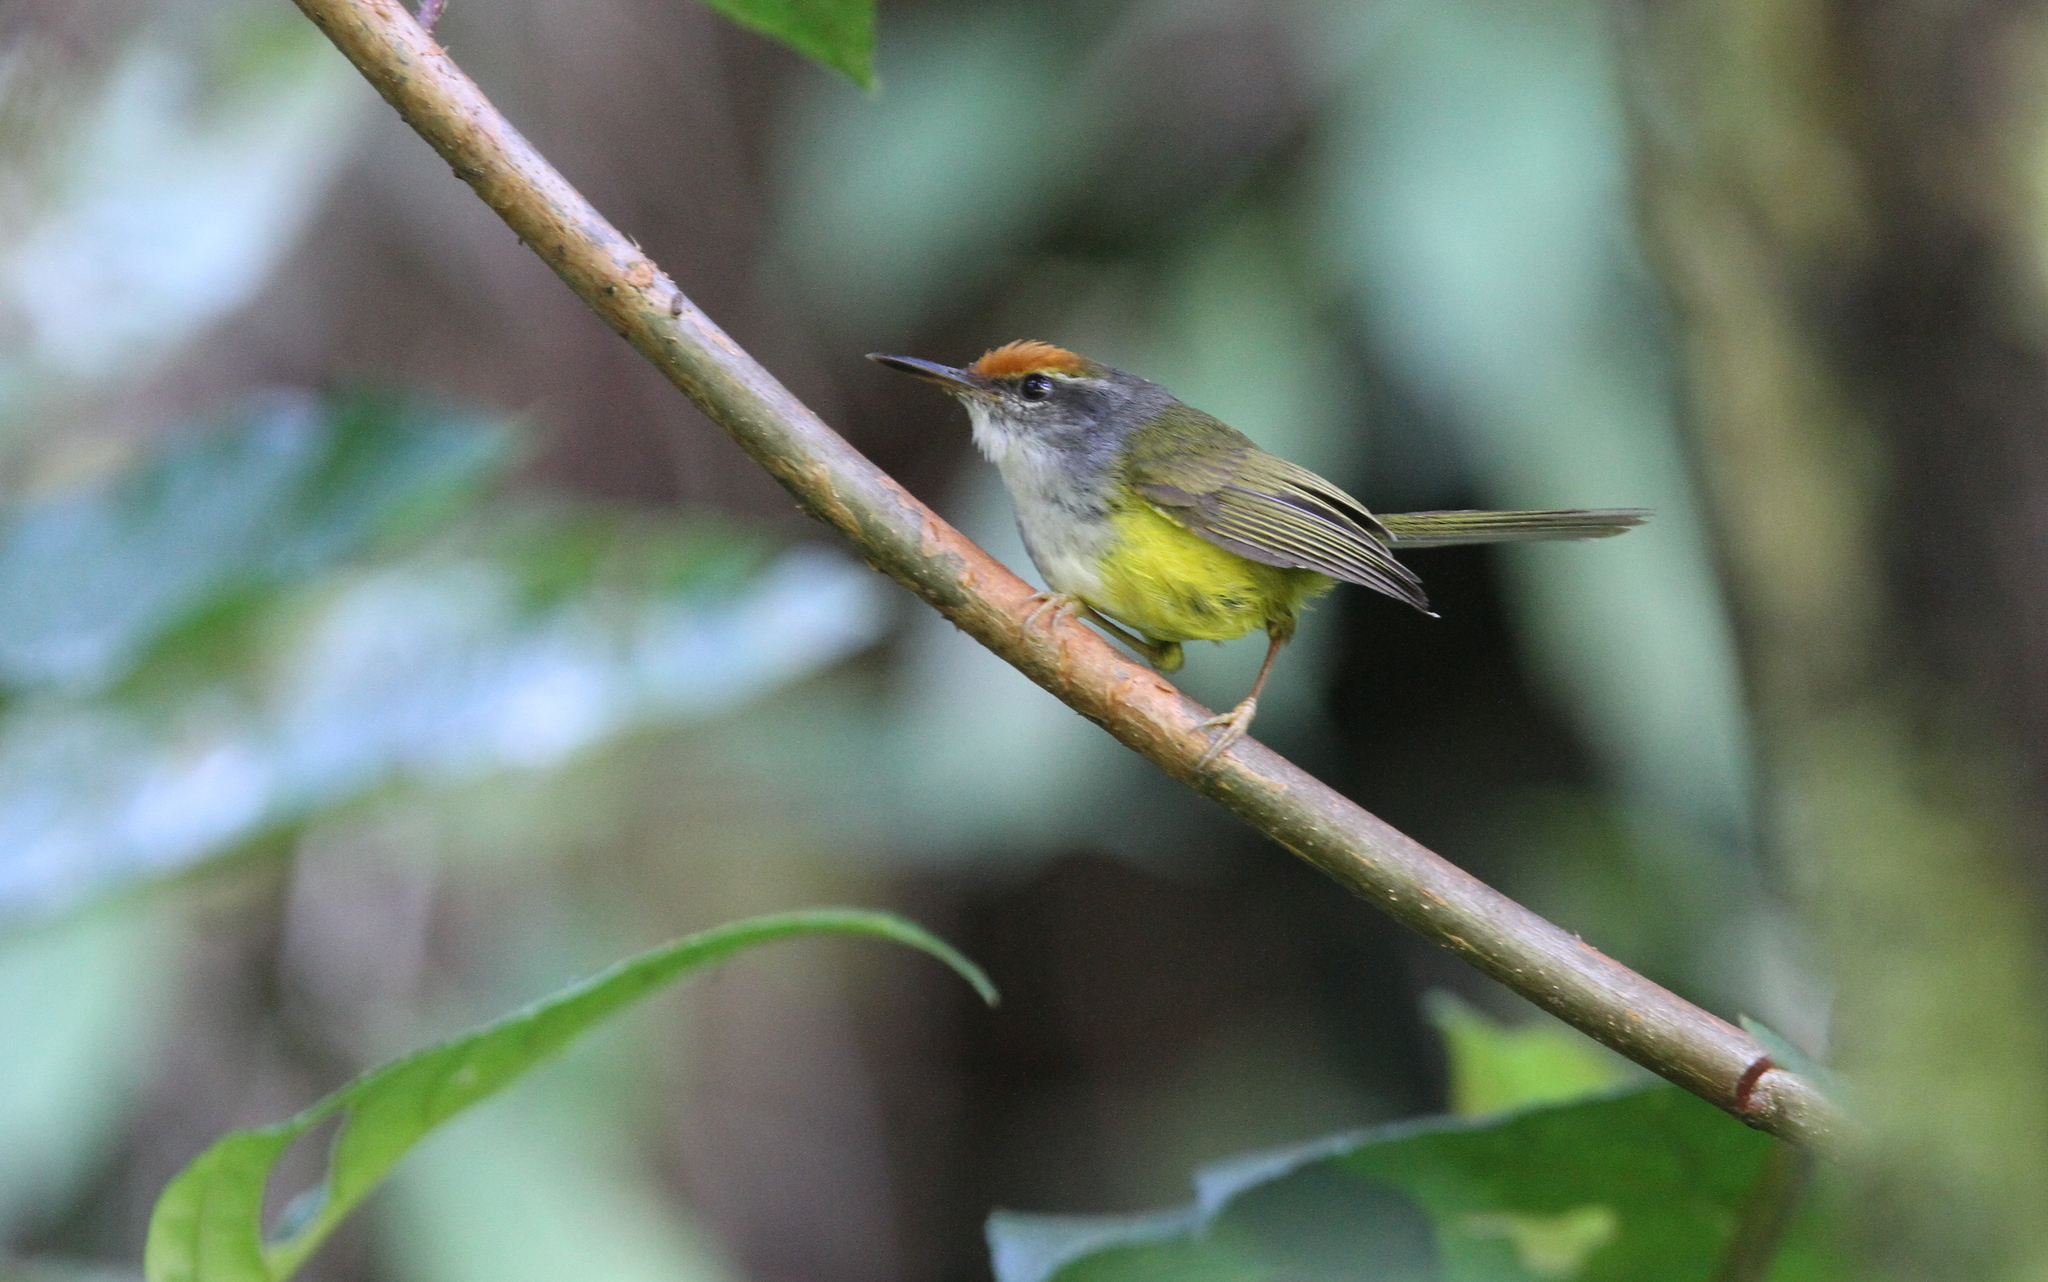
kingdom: Animalia
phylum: Chordata
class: Aves
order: Passeriformes
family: Cettiidae
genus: Phyllergates
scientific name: Phyllergates cuculatus
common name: Mountain tailorbird
